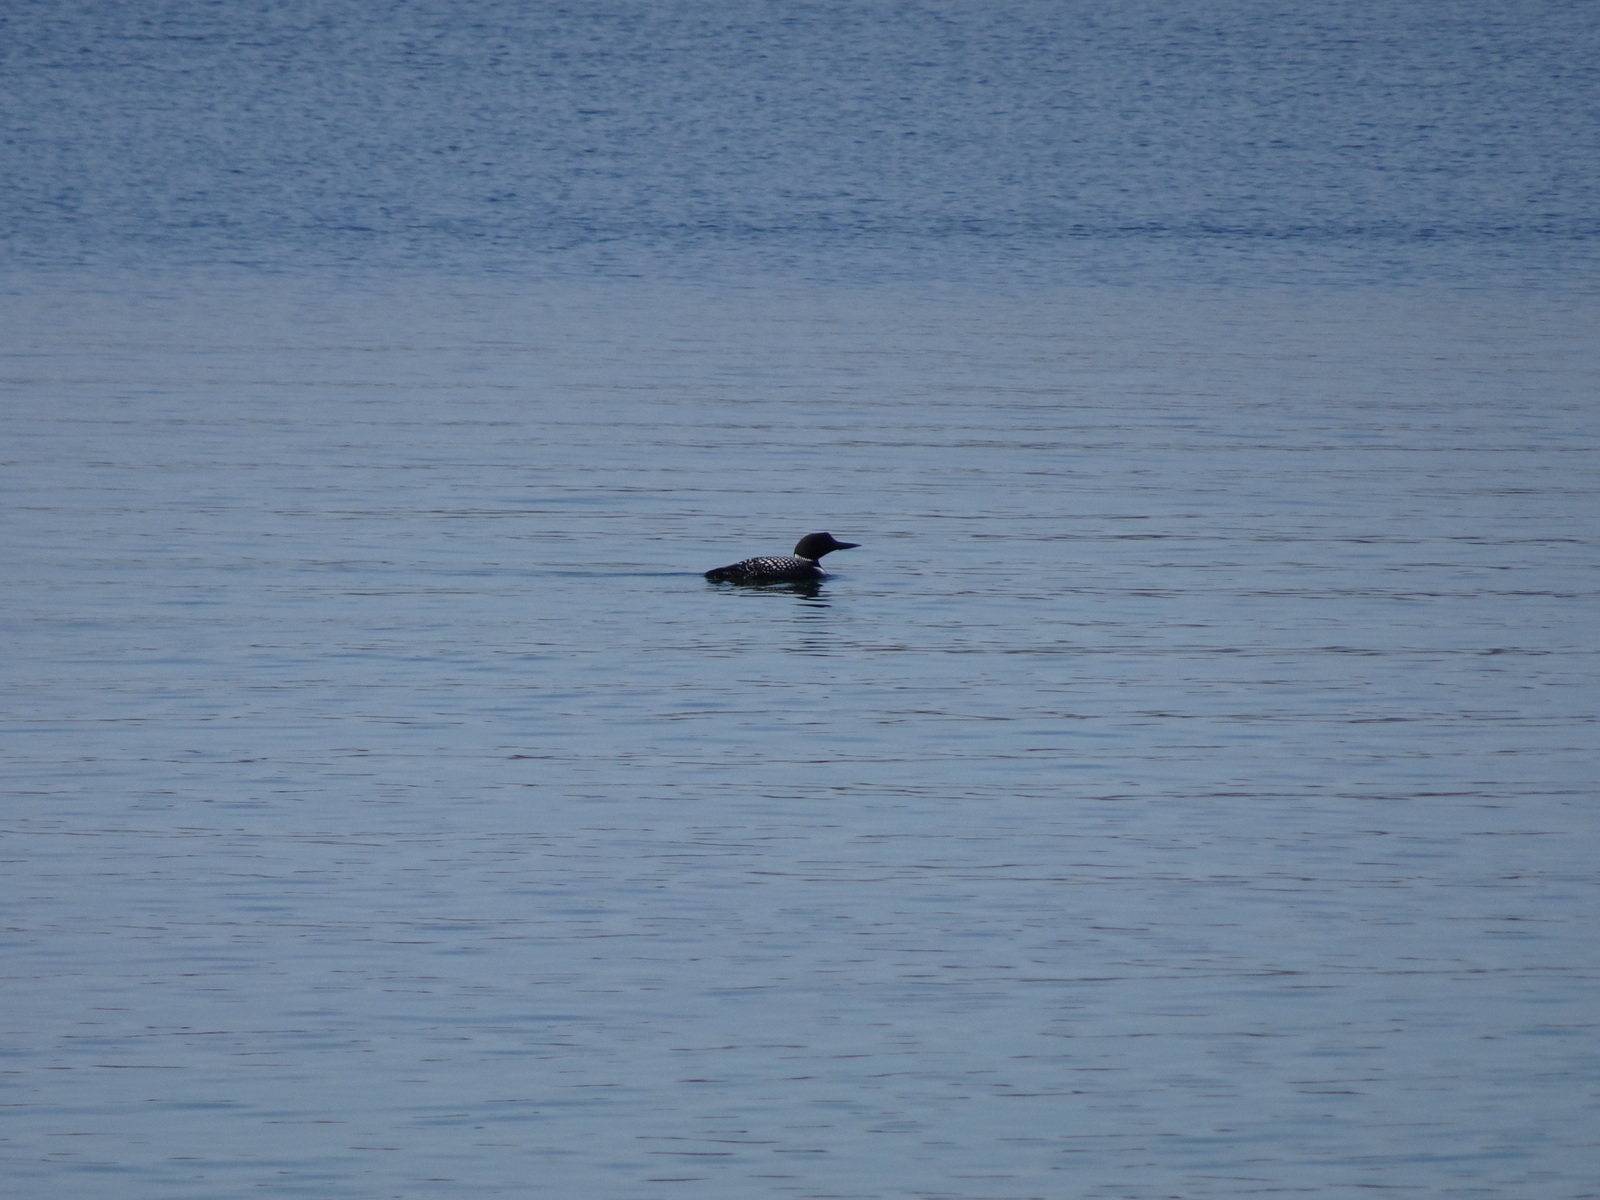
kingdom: Animalia
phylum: Chordata
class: Aves
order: Gaviiformes
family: Gaviidae
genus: Gavia
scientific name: Gavia immer
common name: Common loon
